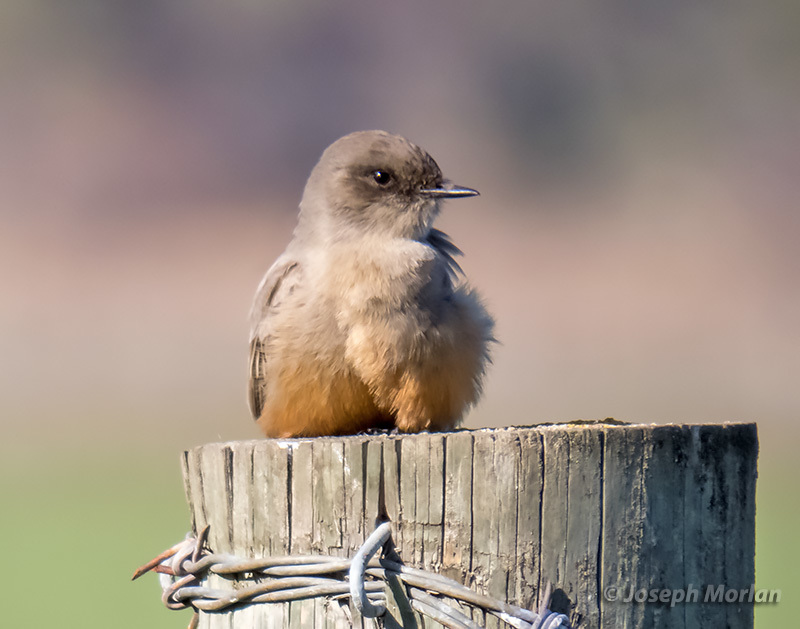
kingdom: Animalia
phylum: Chordata
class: Aves
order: Passeriformes
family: Tyrannidae
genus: Sayornis
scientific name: Sayornis saya
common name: Say's phoebe
